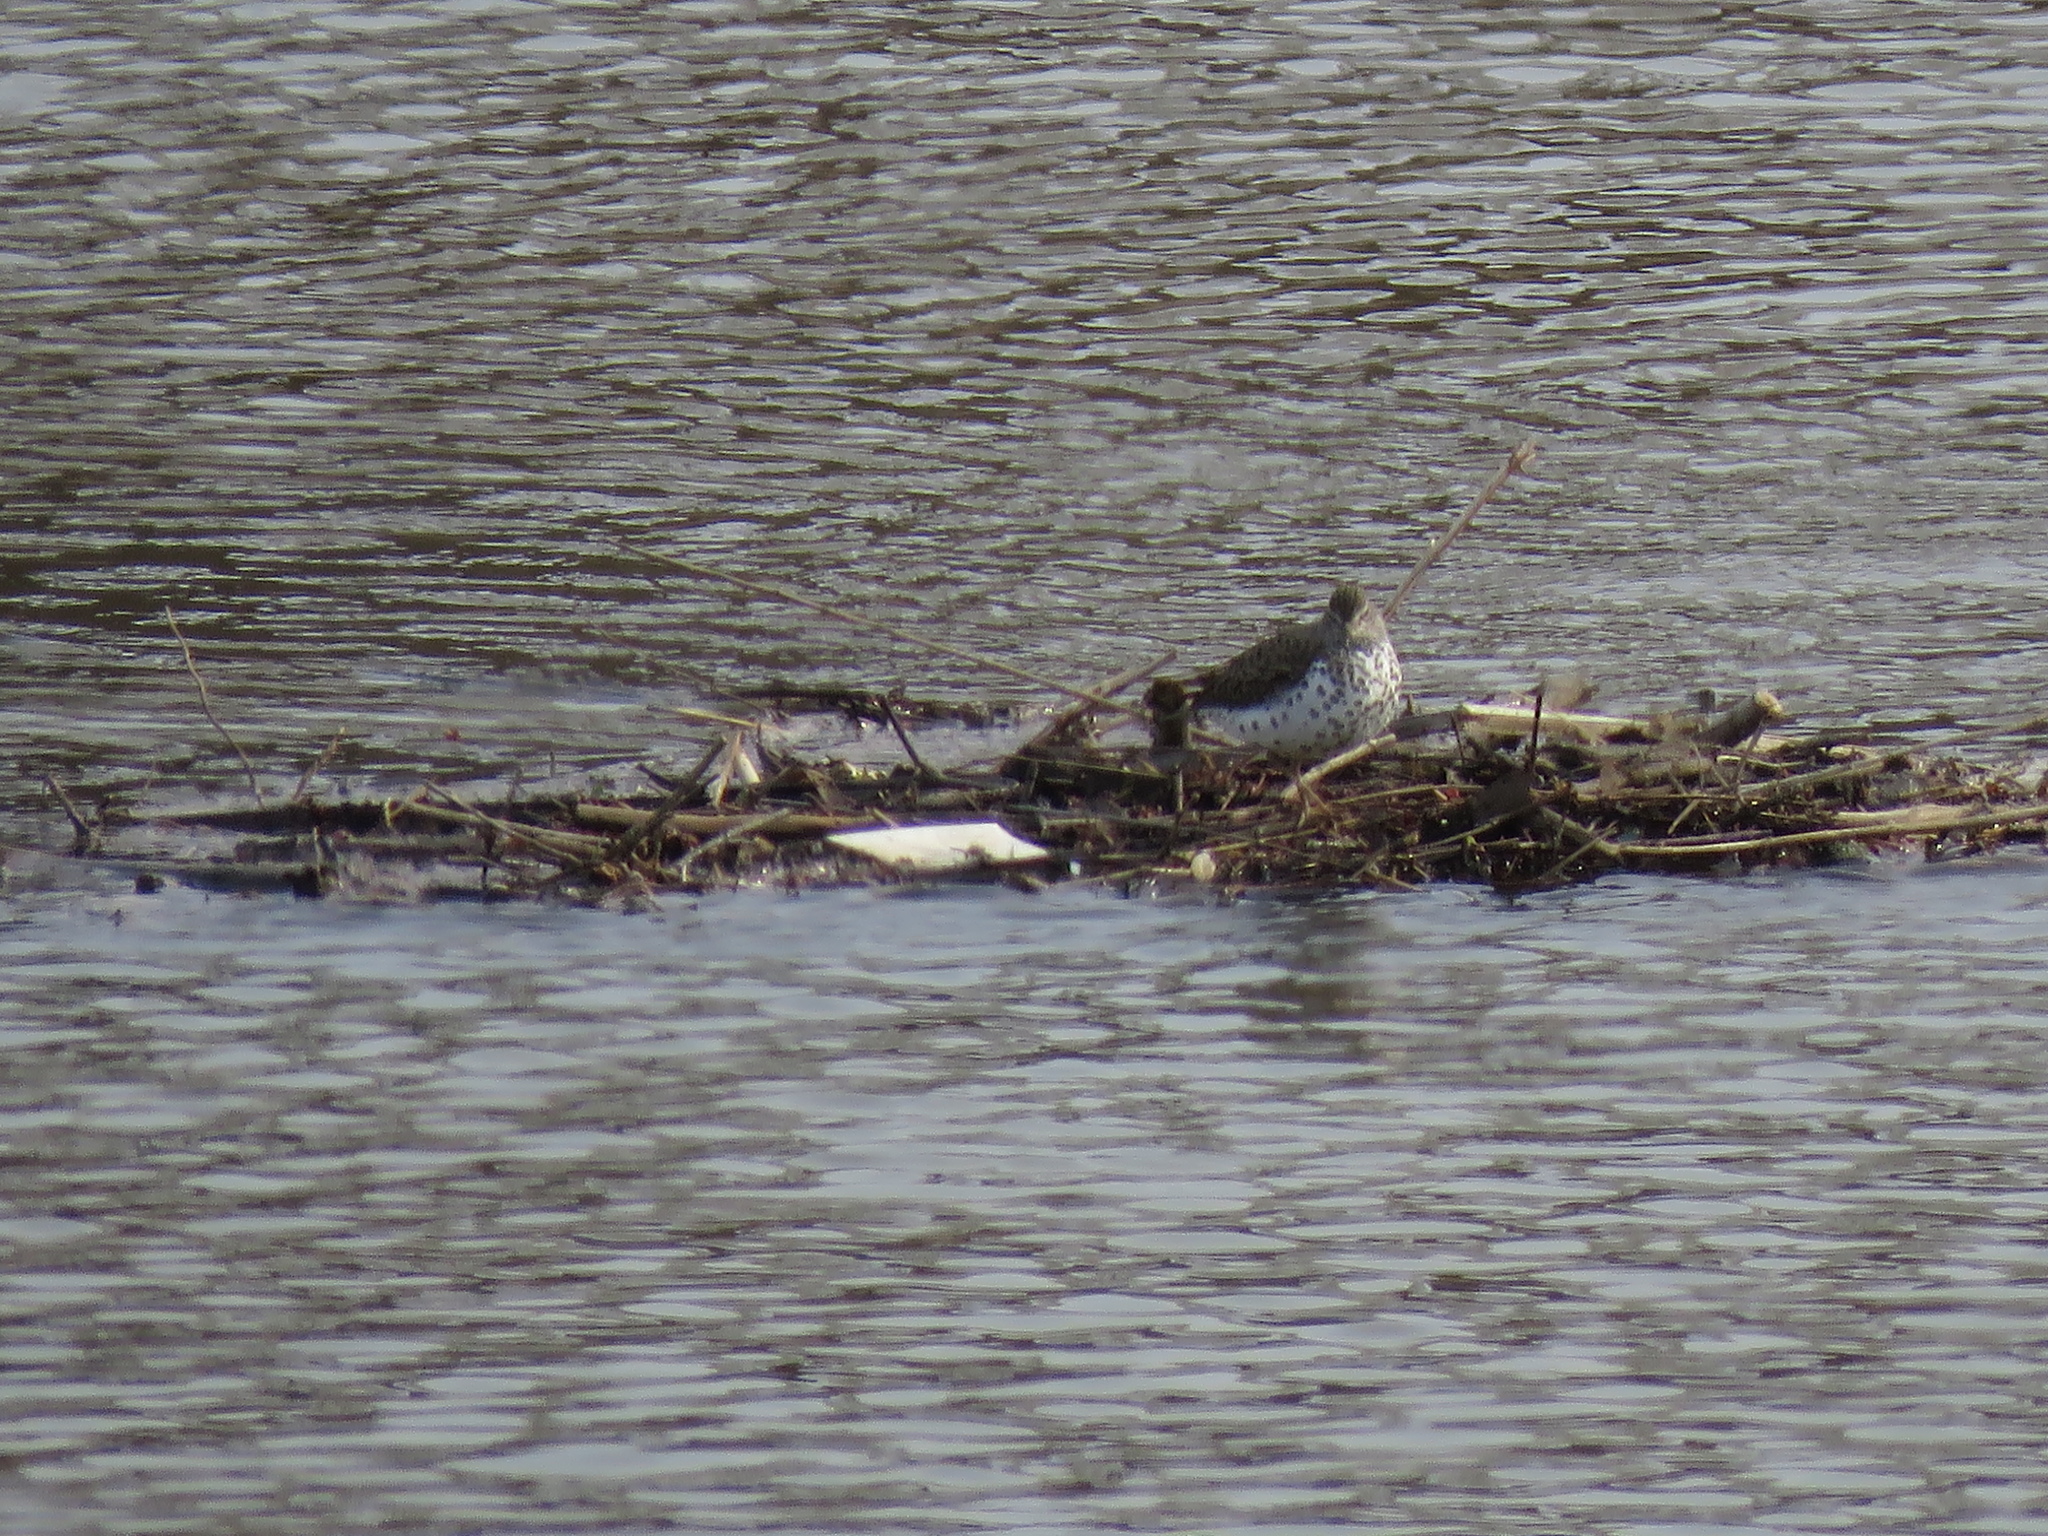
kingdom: Animalia
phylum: Chordata
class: Aves
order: Charadriiformes
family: Scolopacidae
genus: Actitis
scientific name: Actitis macularius
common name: Spotted sandpiper
